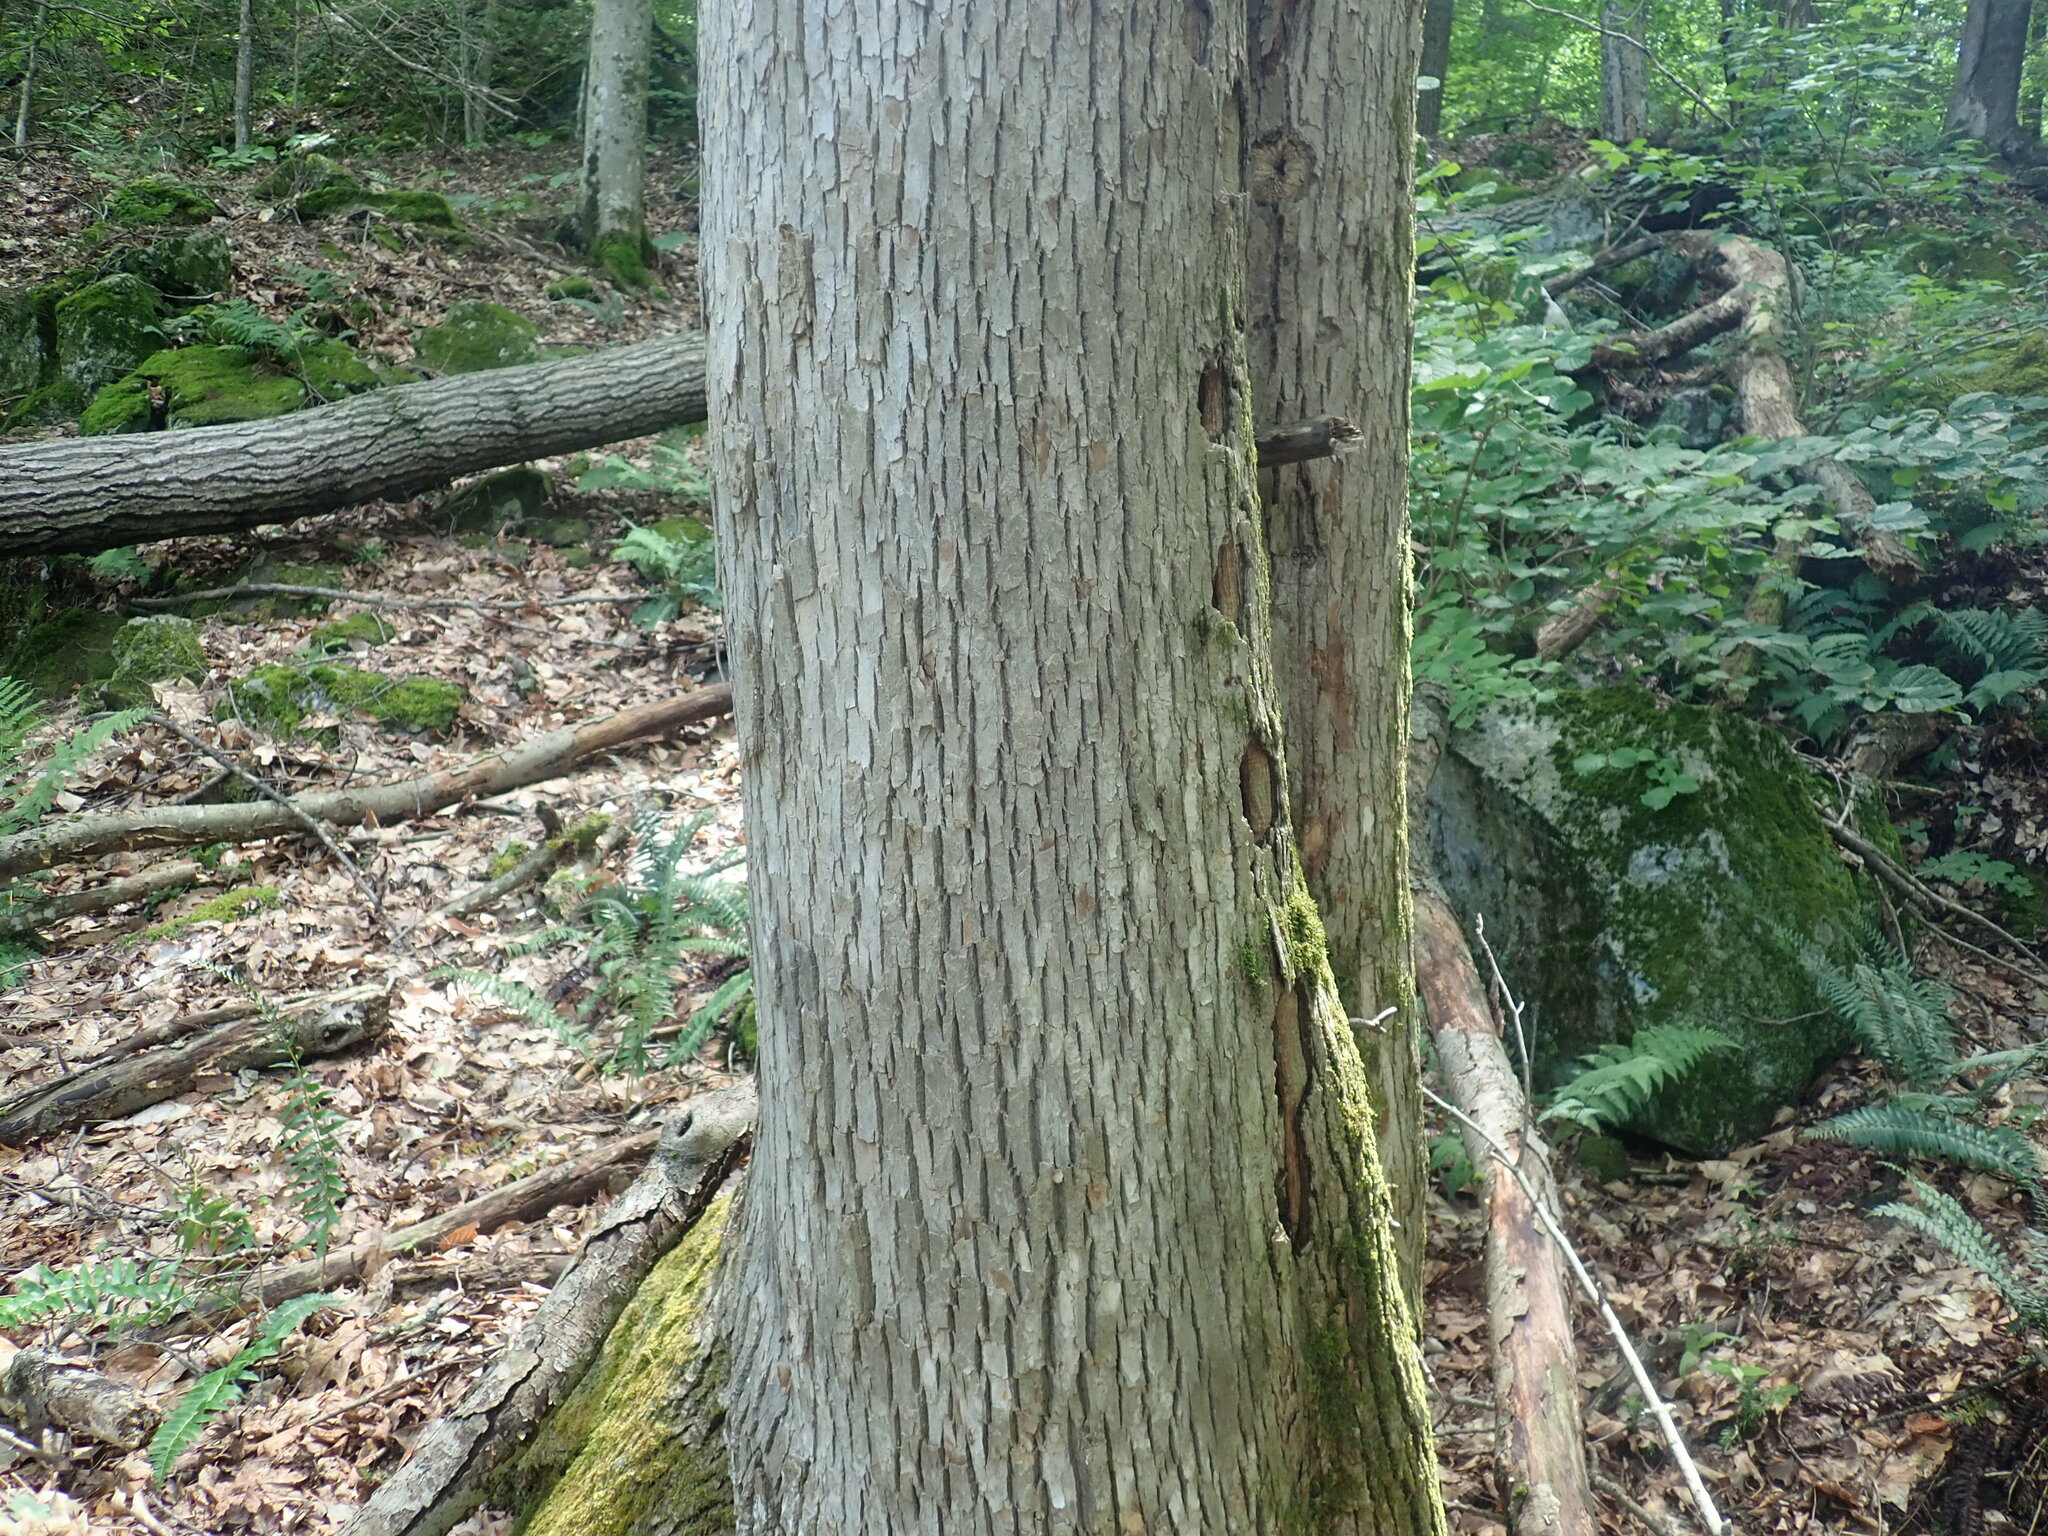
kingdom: Plantae
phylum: Tracheophyta
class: Magnoliopsida
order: Lamiales
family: Oleaceae
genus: Fraxinus
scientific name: Fraxinus americana
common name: White ash
